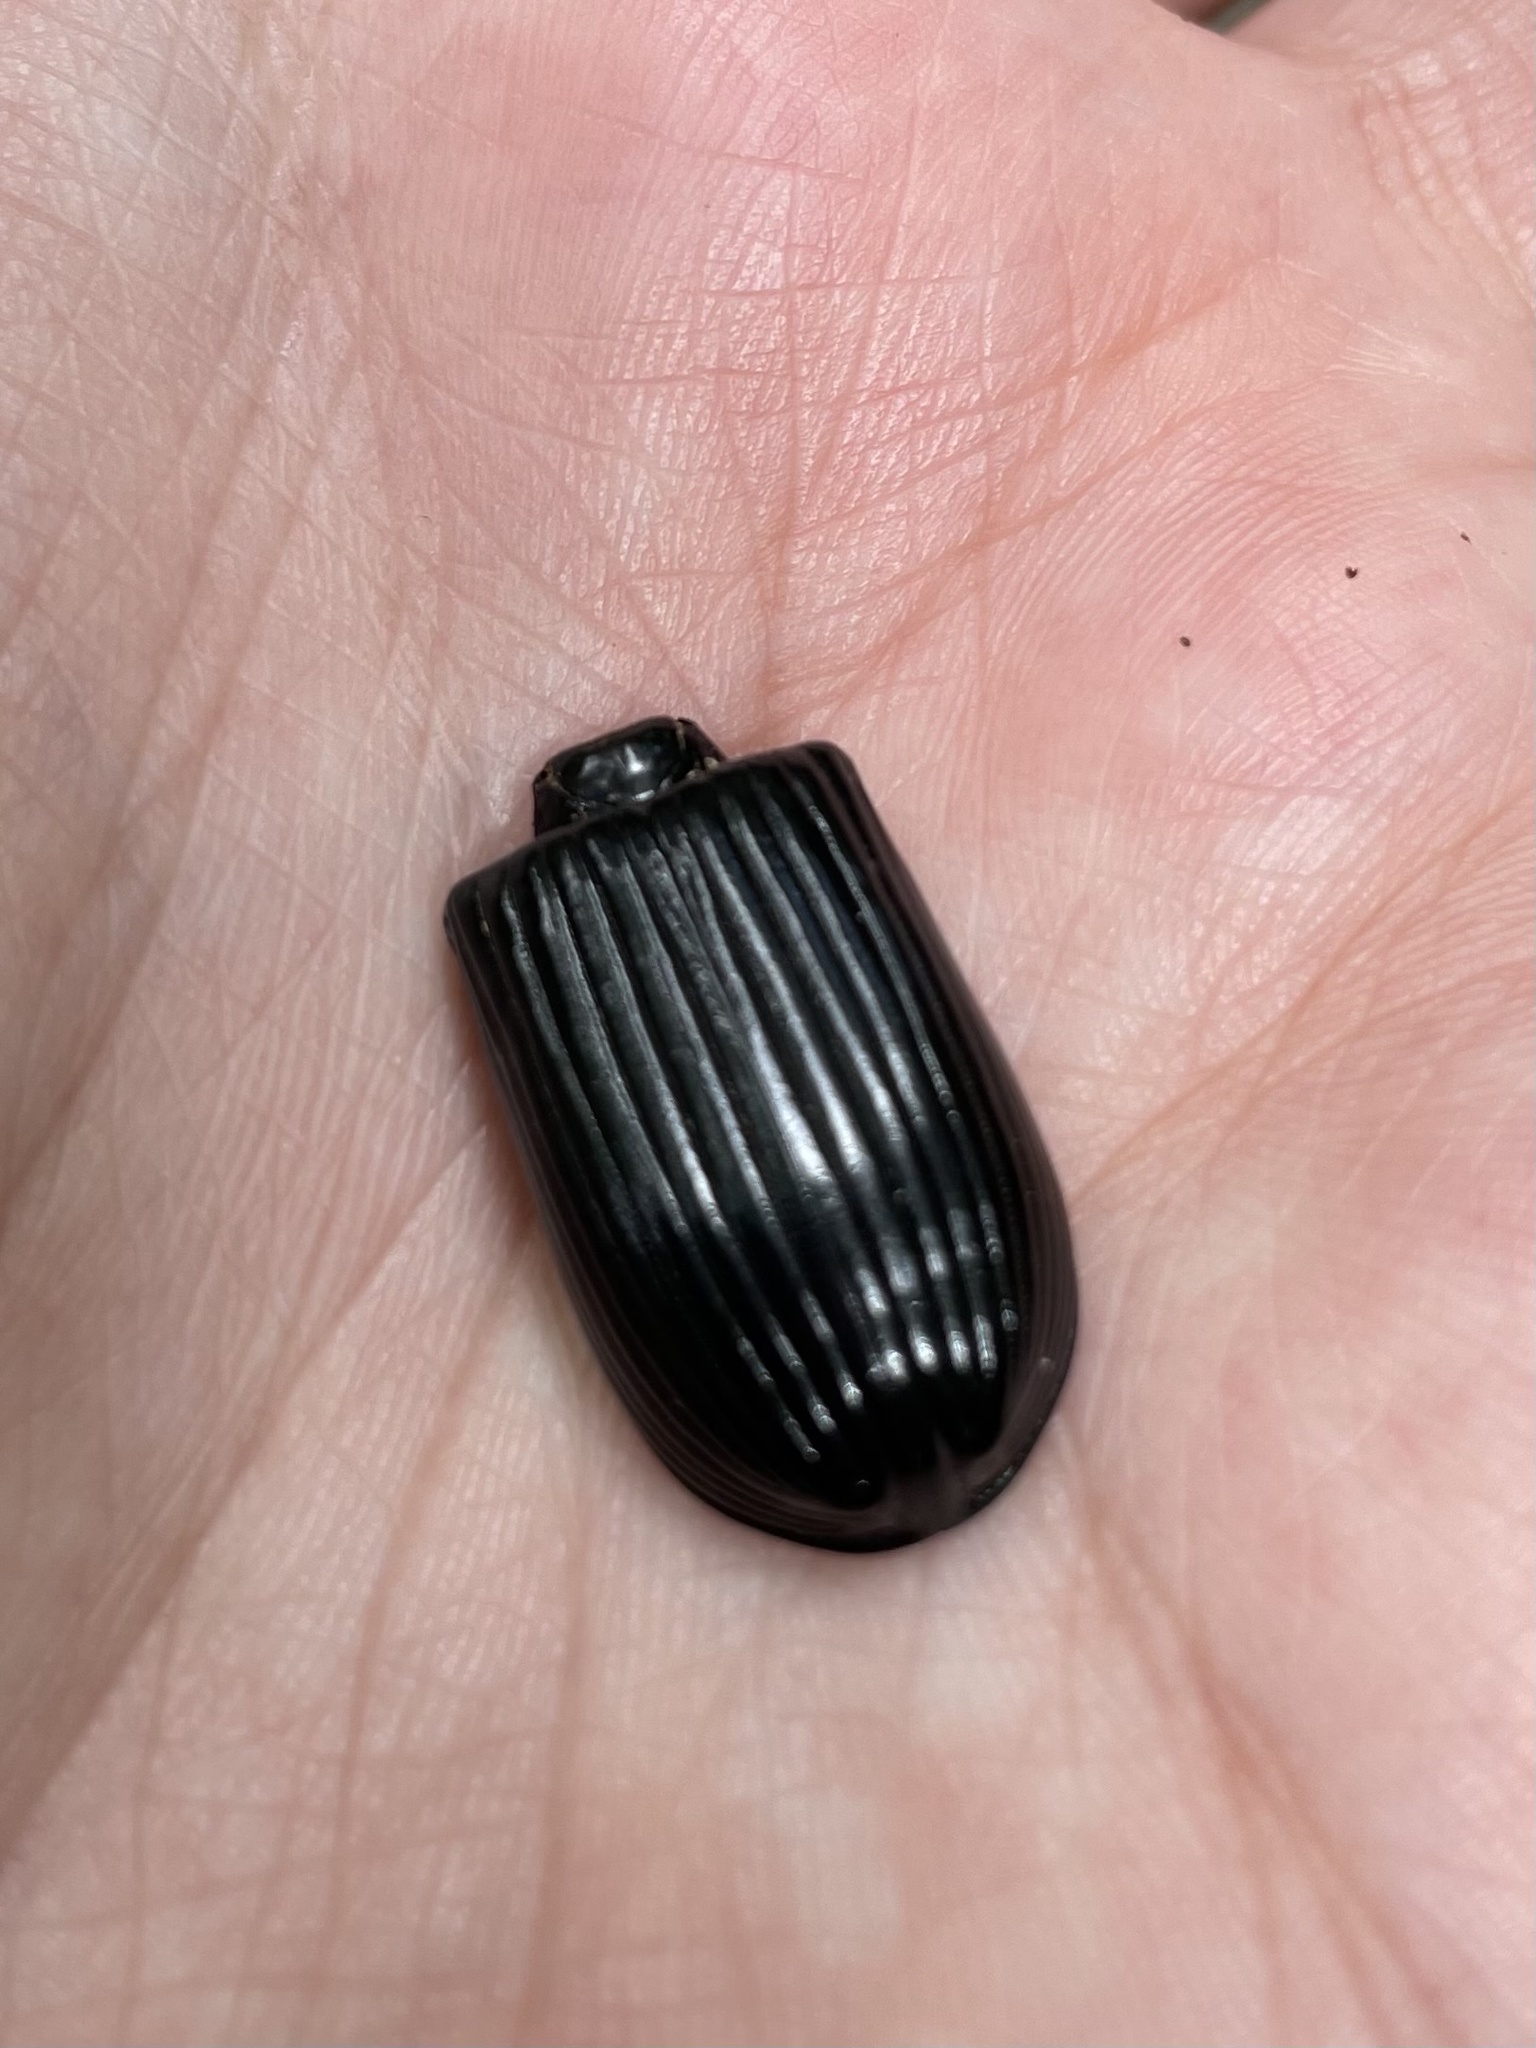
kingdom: Animalia
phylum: Arthropoda
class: Insecta
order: Coleoptera
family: Passalidae
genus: Odontotaenius
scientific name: Odontotaenius disjunctus
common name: Patent leather beetle
